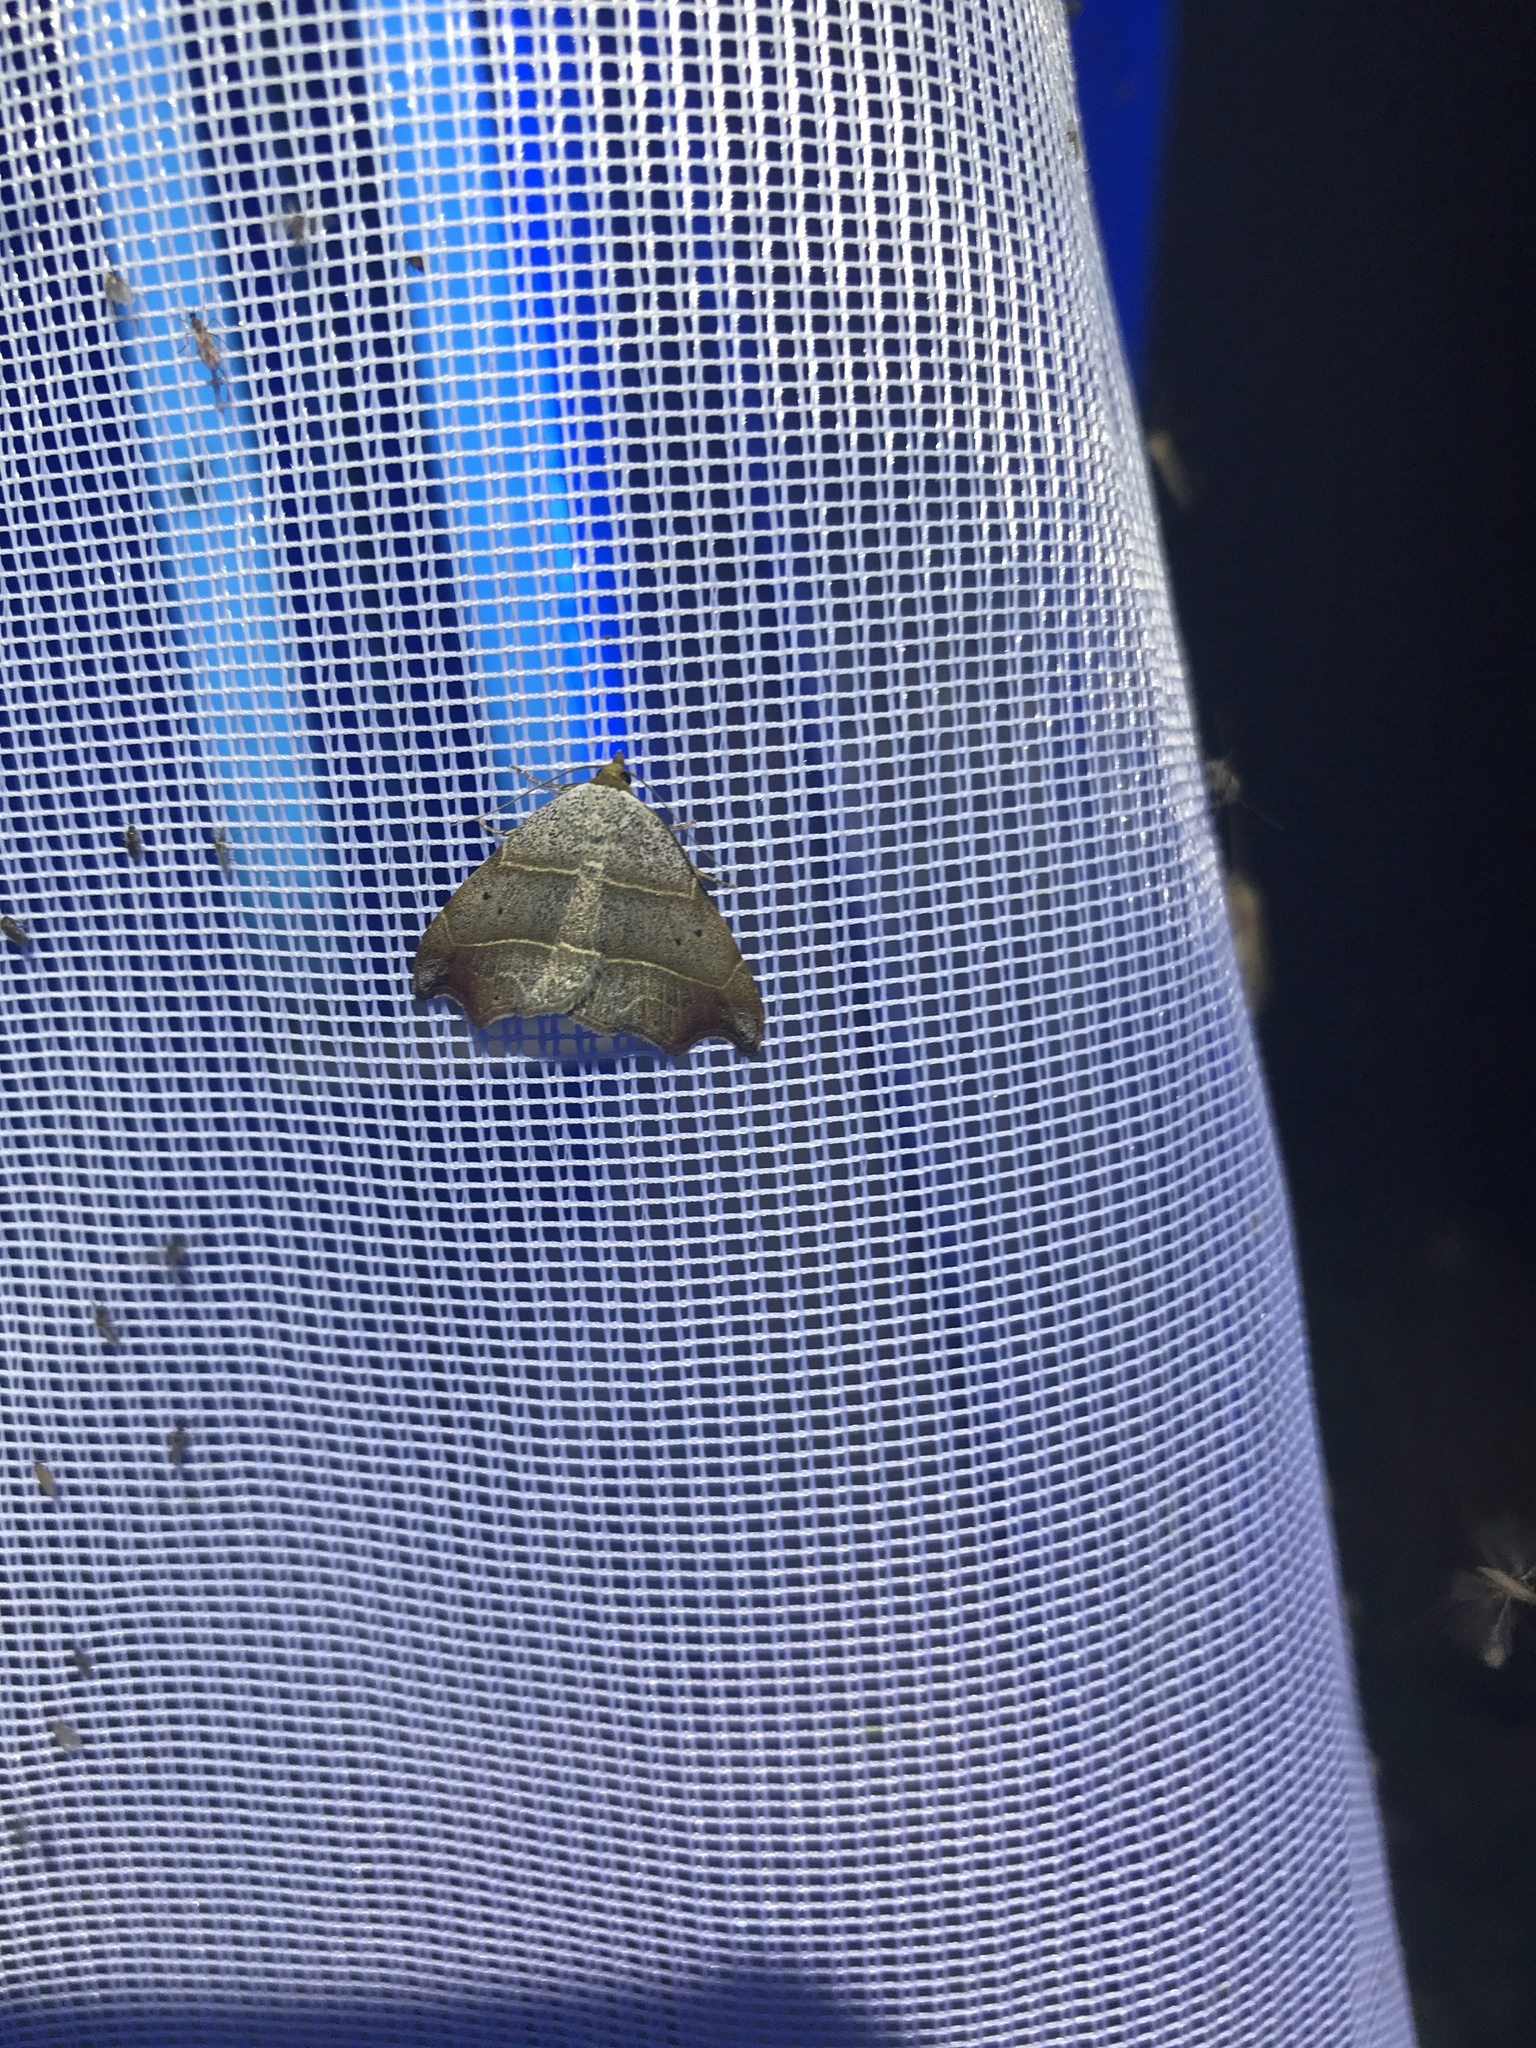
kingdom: Animalia
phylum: Arthropoda
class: Insecta
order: Lepidoptera
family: Erebidae
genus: Laspeyria
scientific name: Laspeyria flexula
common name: Beautiful hook-tip
